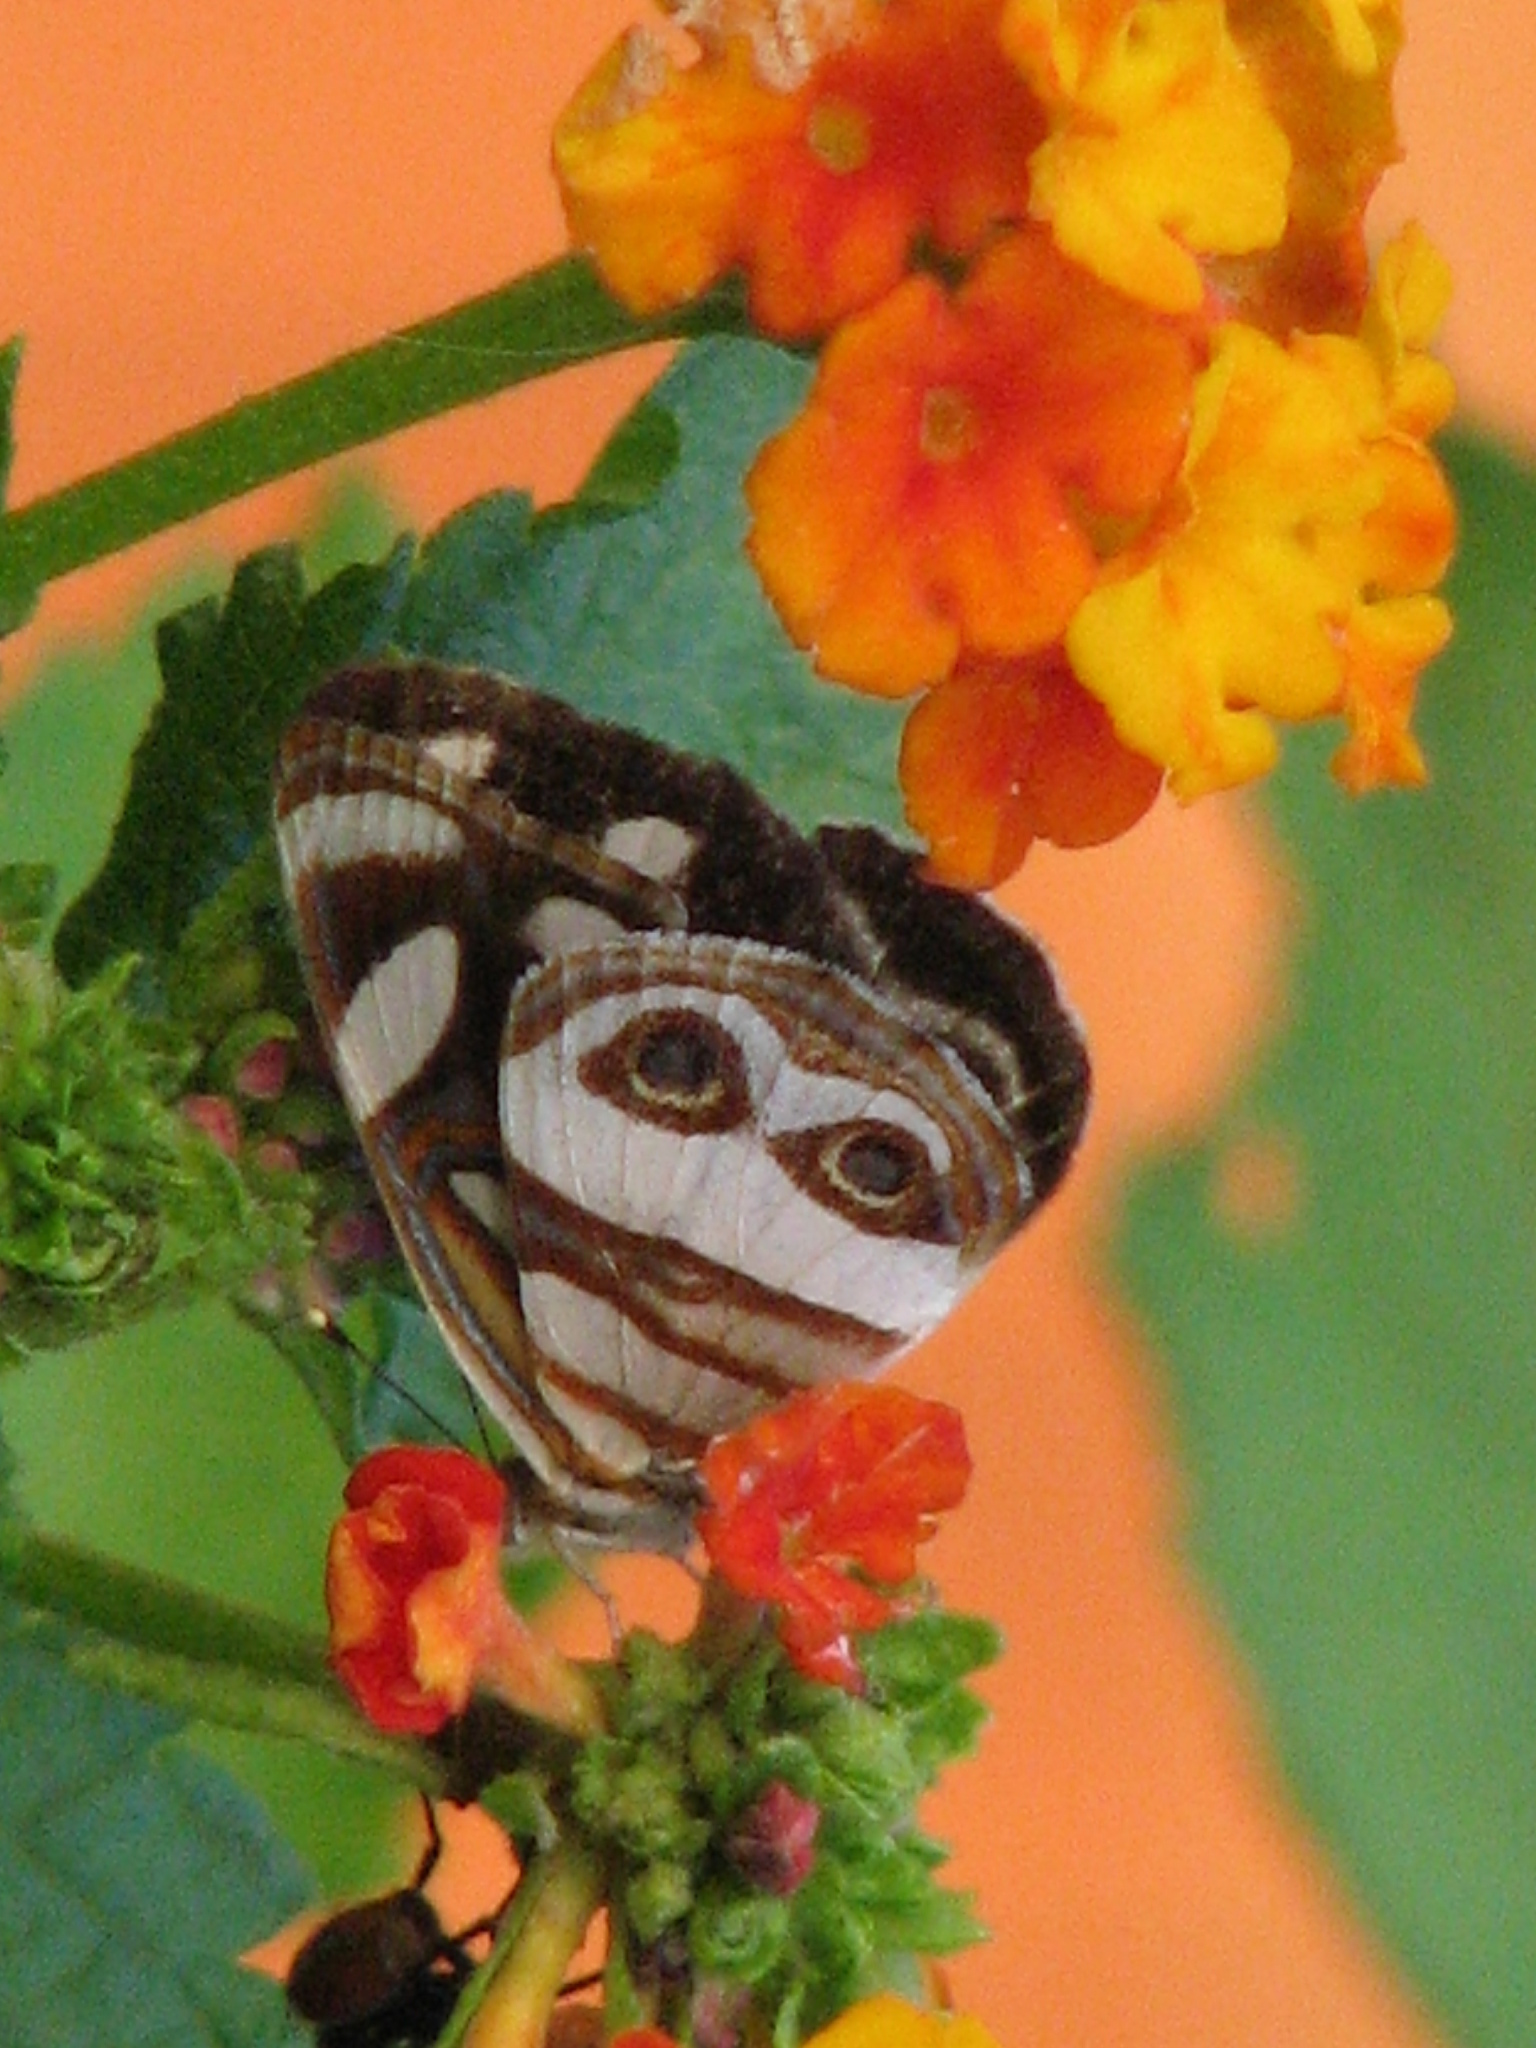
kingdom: Animalia
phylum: Arthropoda
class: Insecta
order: Lepidoptera
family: Nymphalidae
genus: Dynamine
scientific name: Dynamine dyonis
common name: Blue-eyed sailor
